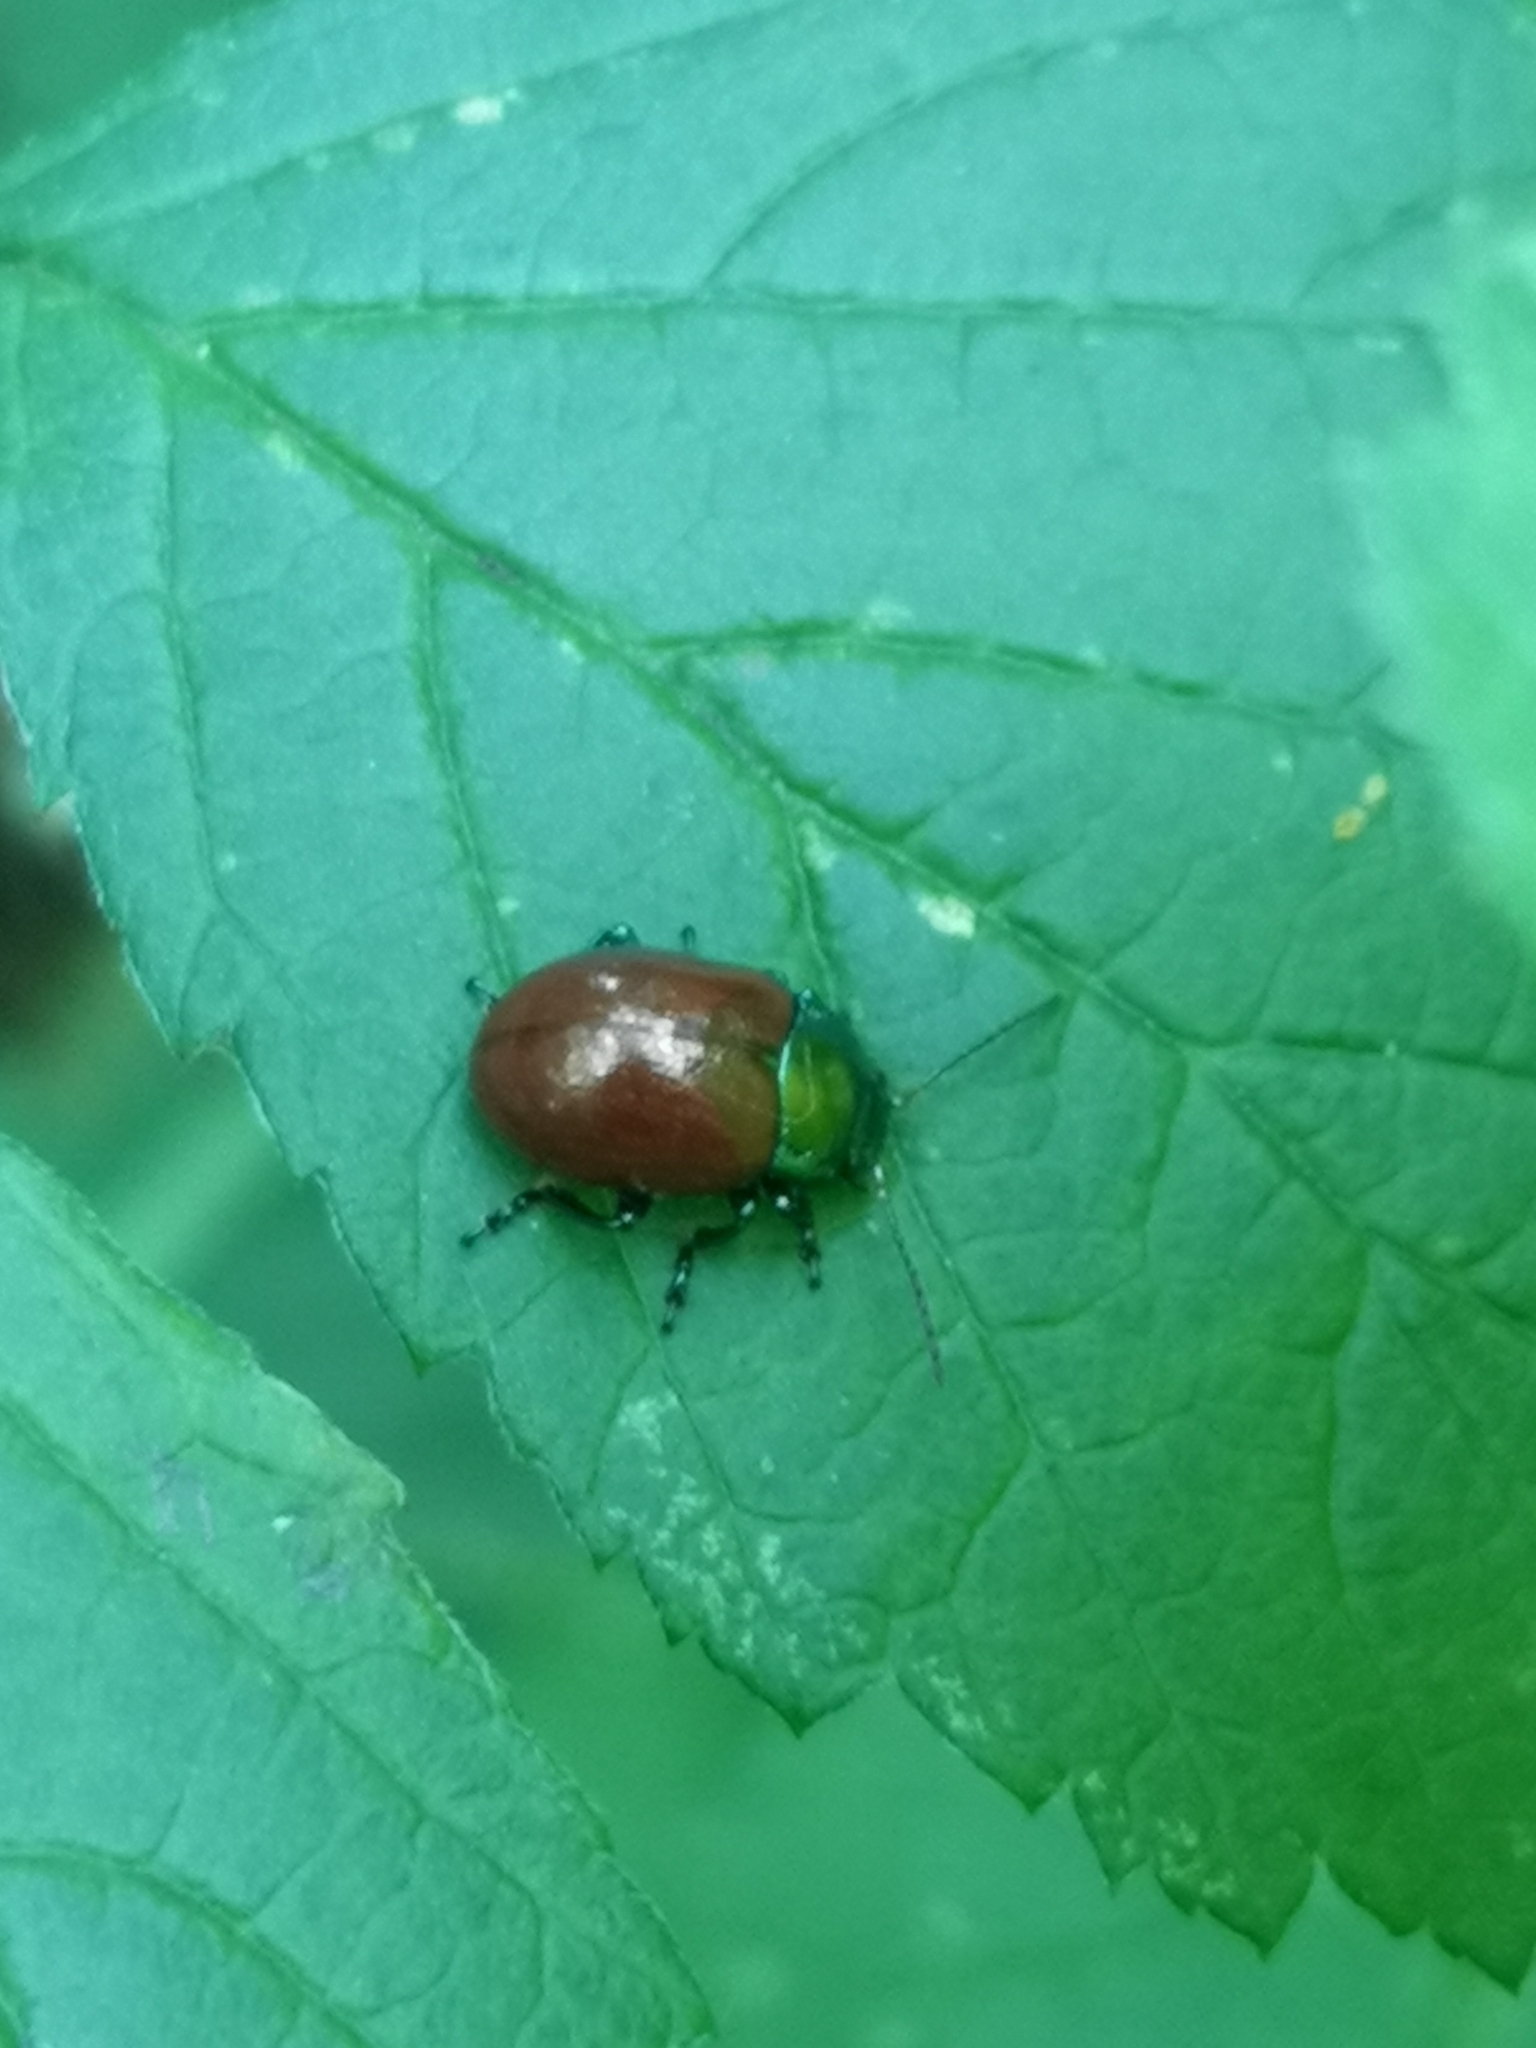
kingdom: Animalia
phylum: Arthropoda
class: Insecta
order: Coleoptera
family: Chrysomelidae
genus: Chrysomela
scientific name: Chrysomela polita
